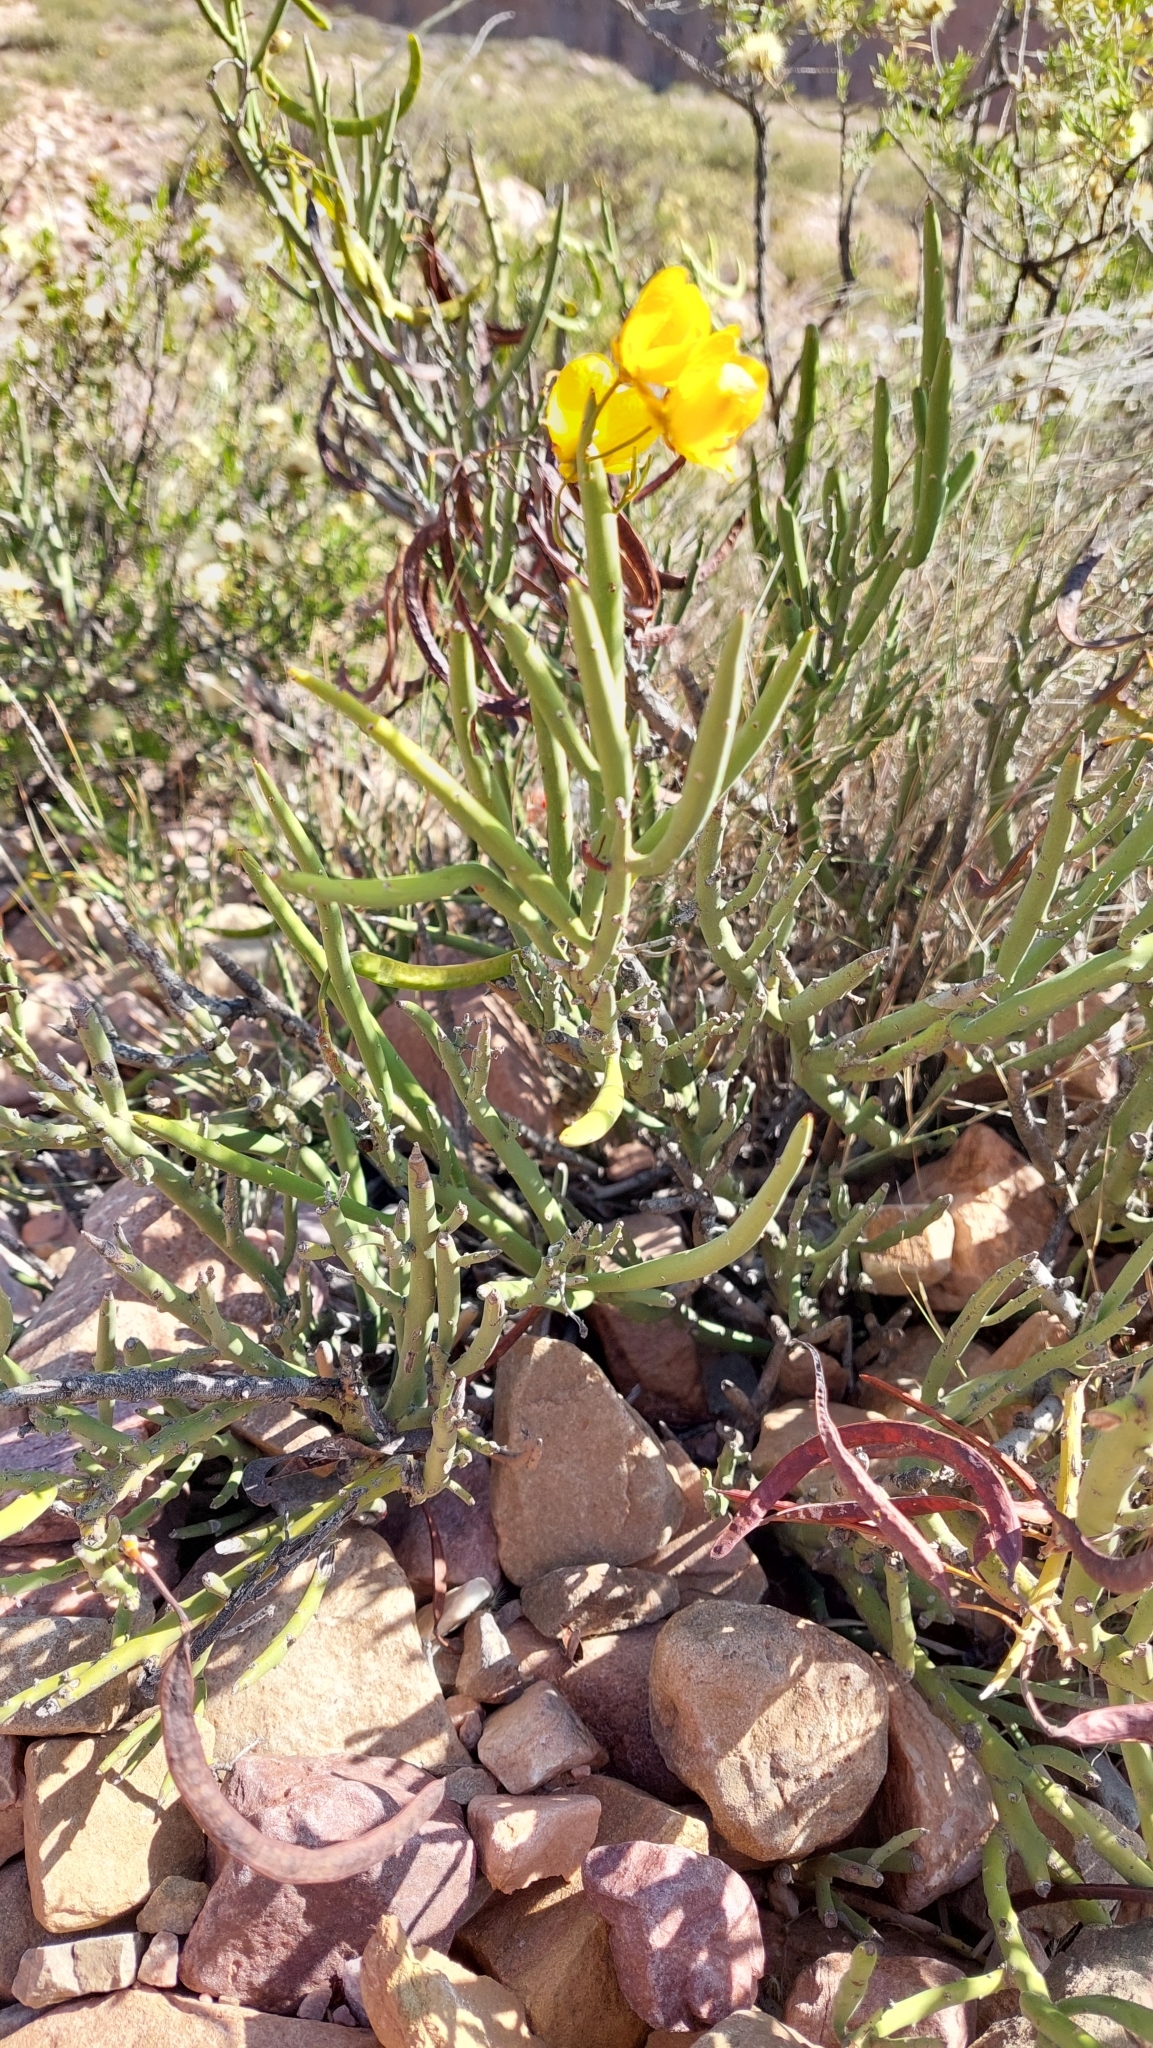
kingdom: Plantae
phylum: Tracheophyta
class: Magnoliopsida
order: Fabales
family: Fabaceae
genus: Senna
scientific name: Senna crassiramea
